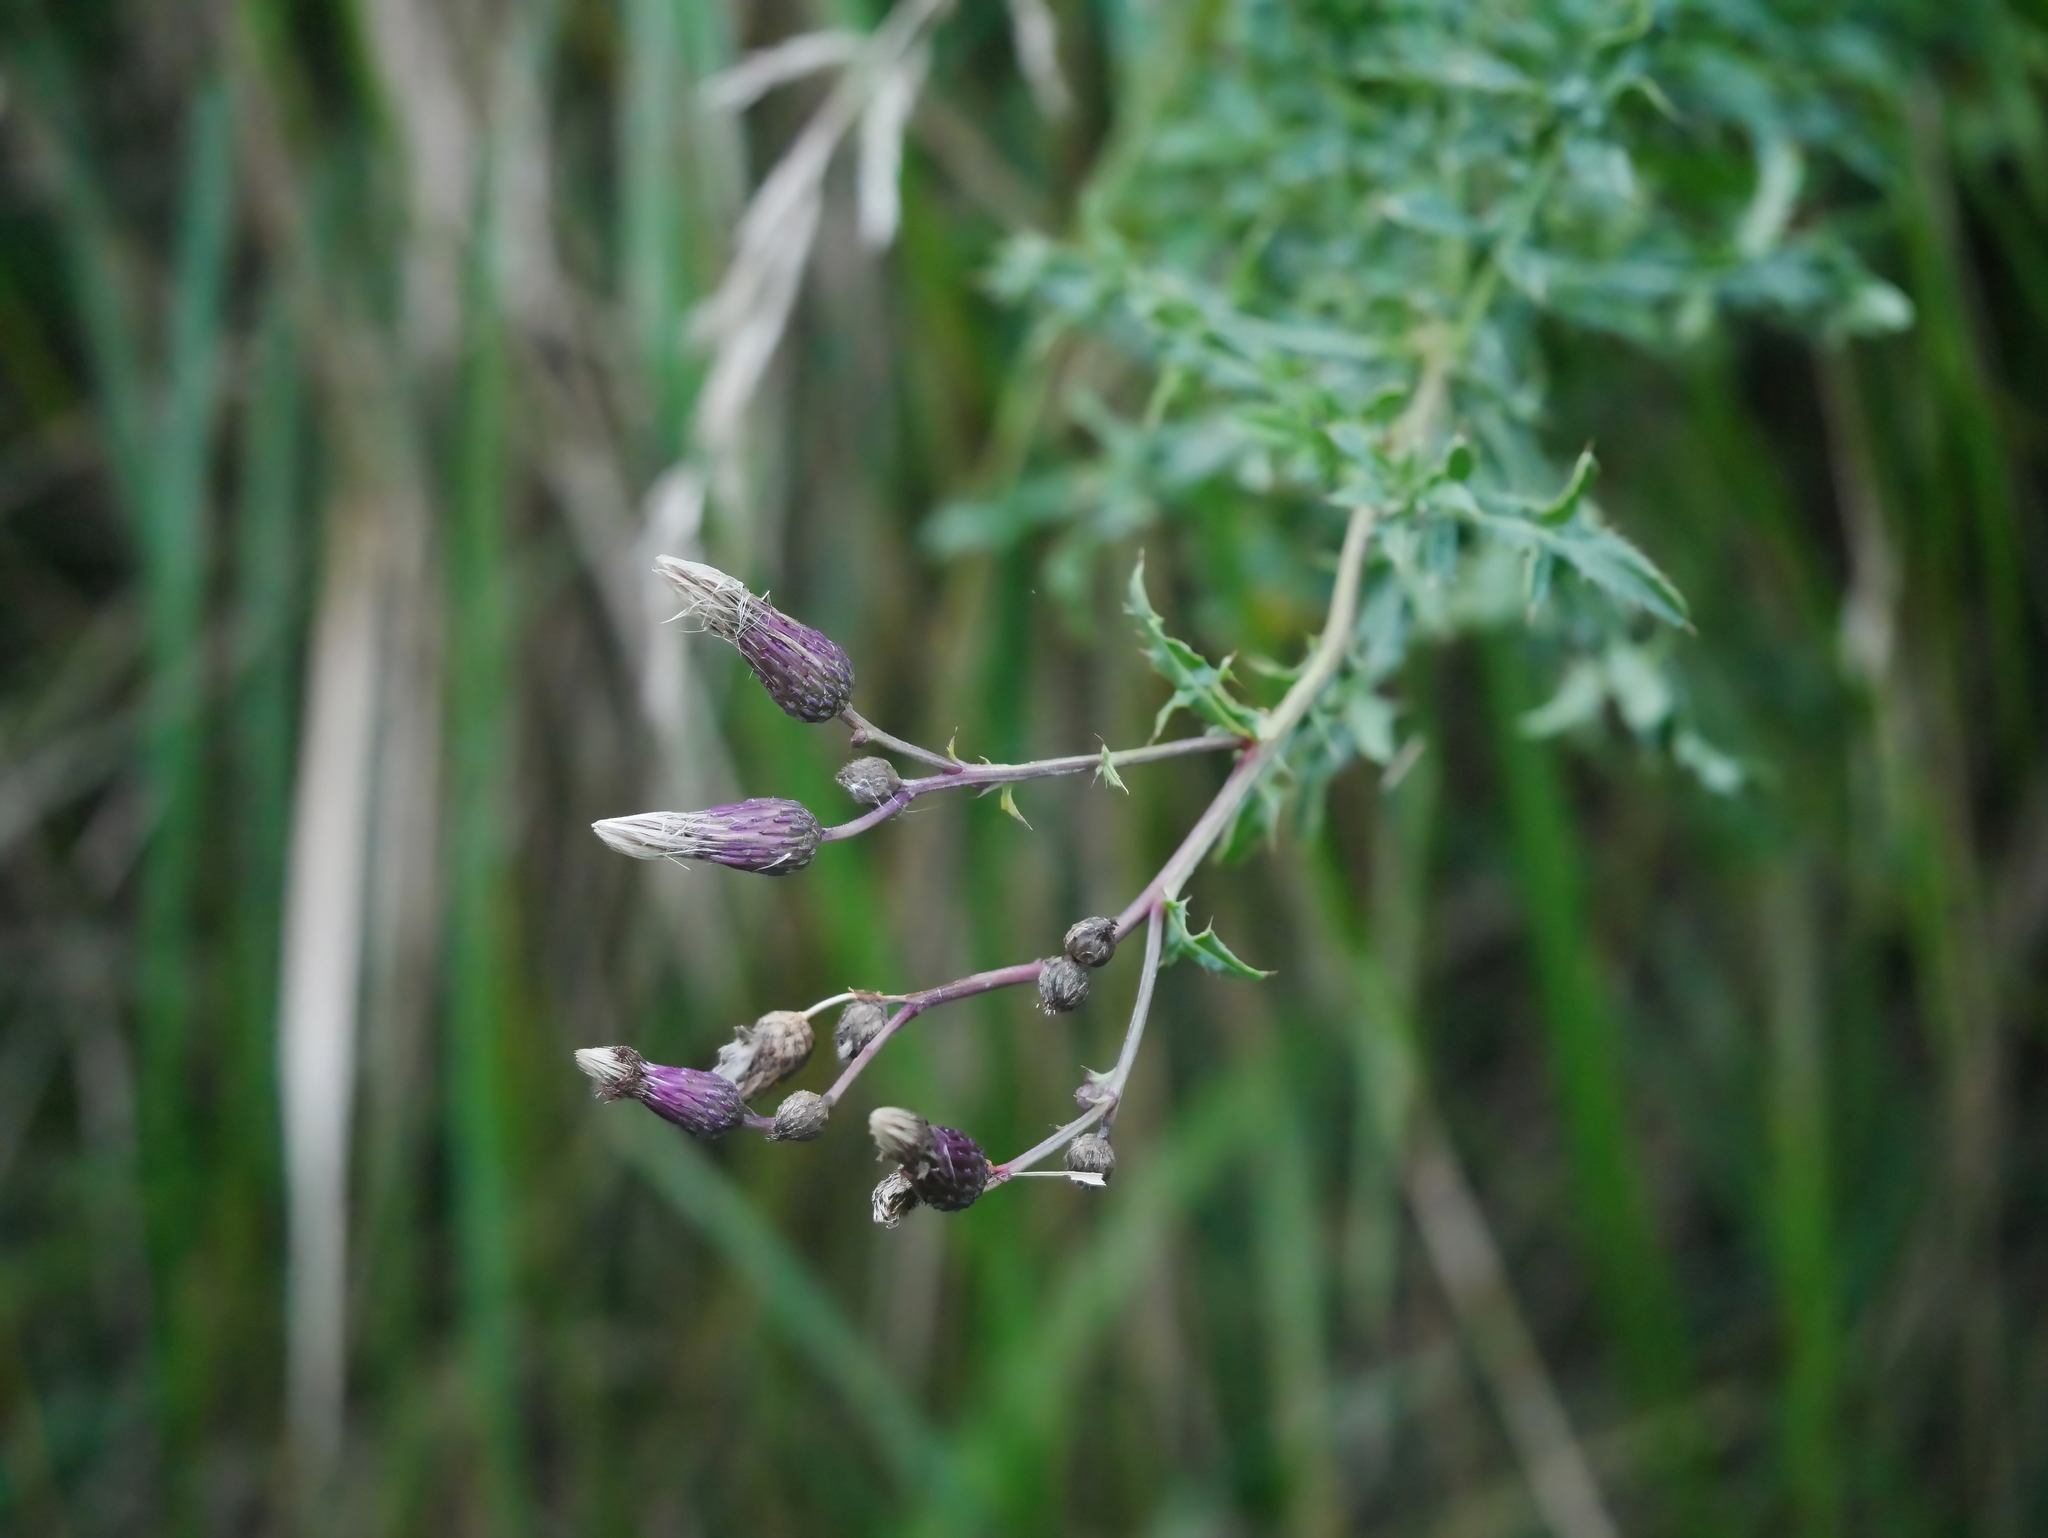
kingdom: Plantae
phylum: Tracheophyta
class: Magnoliopsida
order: Asterales
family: Asteraceae
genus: Cirsium
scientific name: Cirsium arvense
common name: Creeping thistle
